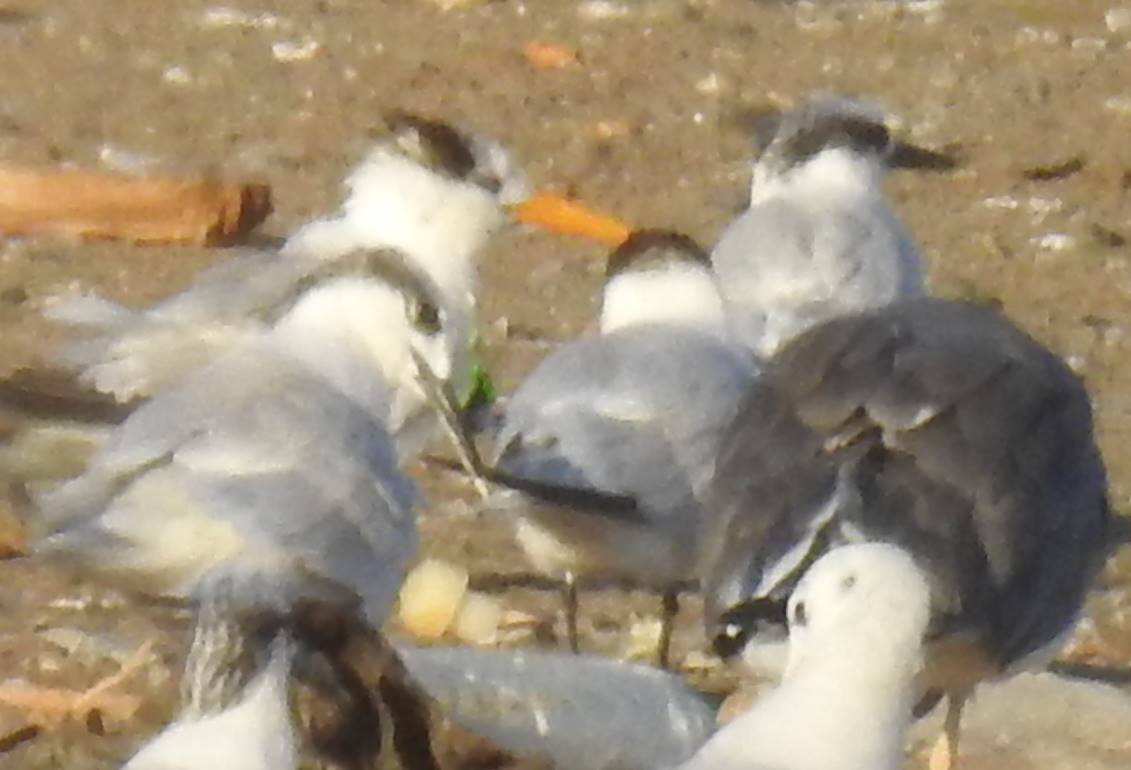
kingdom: Animalia
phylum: Chordata
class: Aves
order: Charadriiformes
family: Laridae
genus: Thalasseus
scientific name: Thalasseus bengalensis
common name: Lesser crested tern
